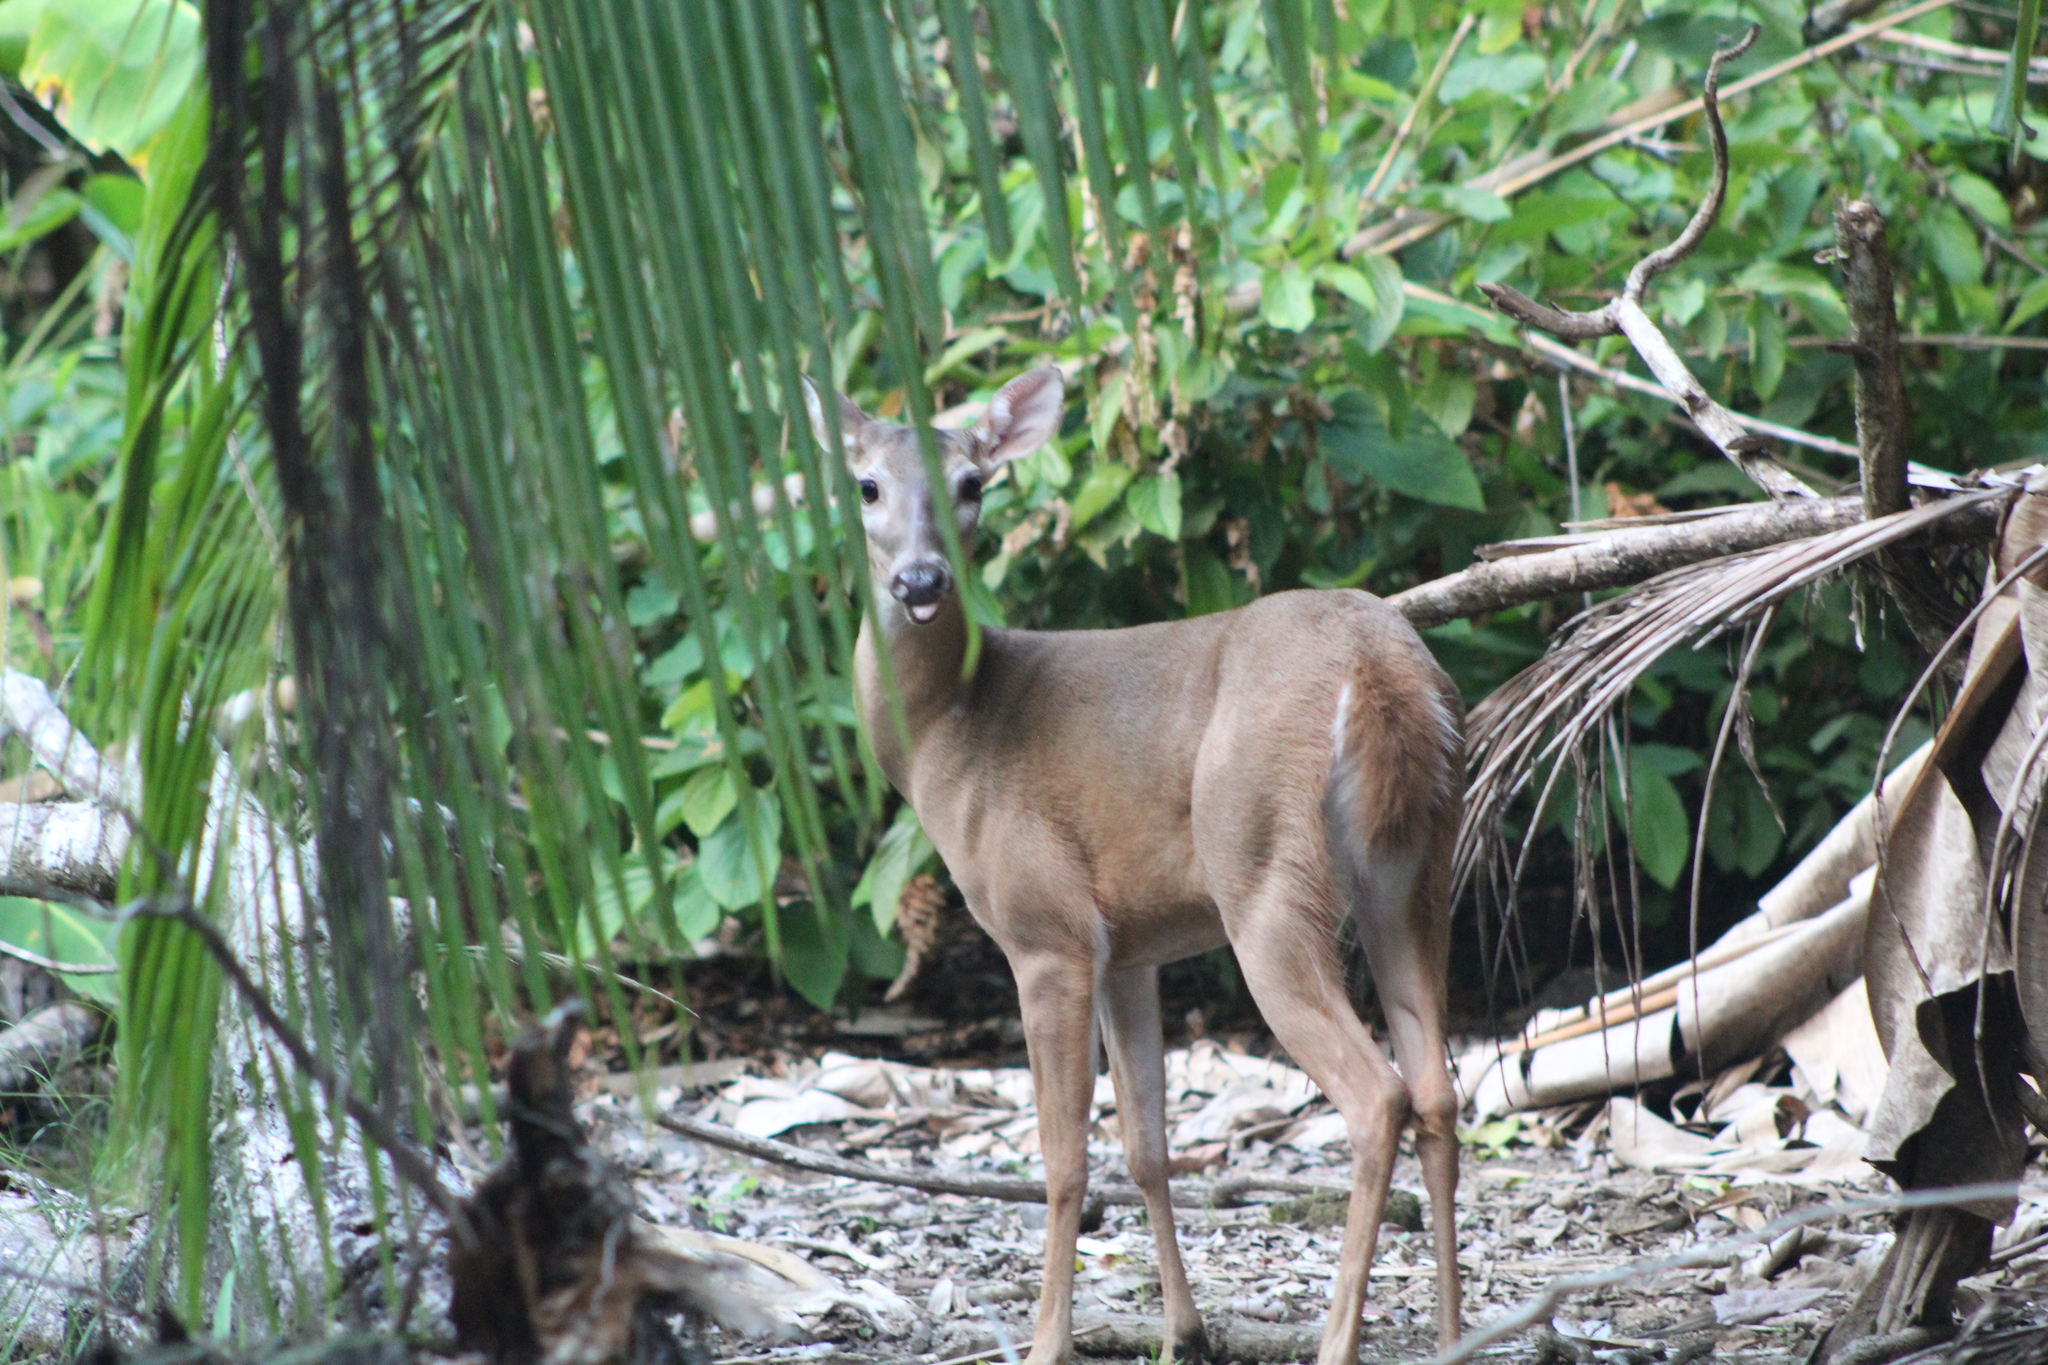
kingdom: Animalia
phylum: Chordata
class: Mammalia
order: Artiodactyla
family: Cervidae
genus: Odocoileus
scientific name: Odocoileus virginianus
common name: White-tailed deer
